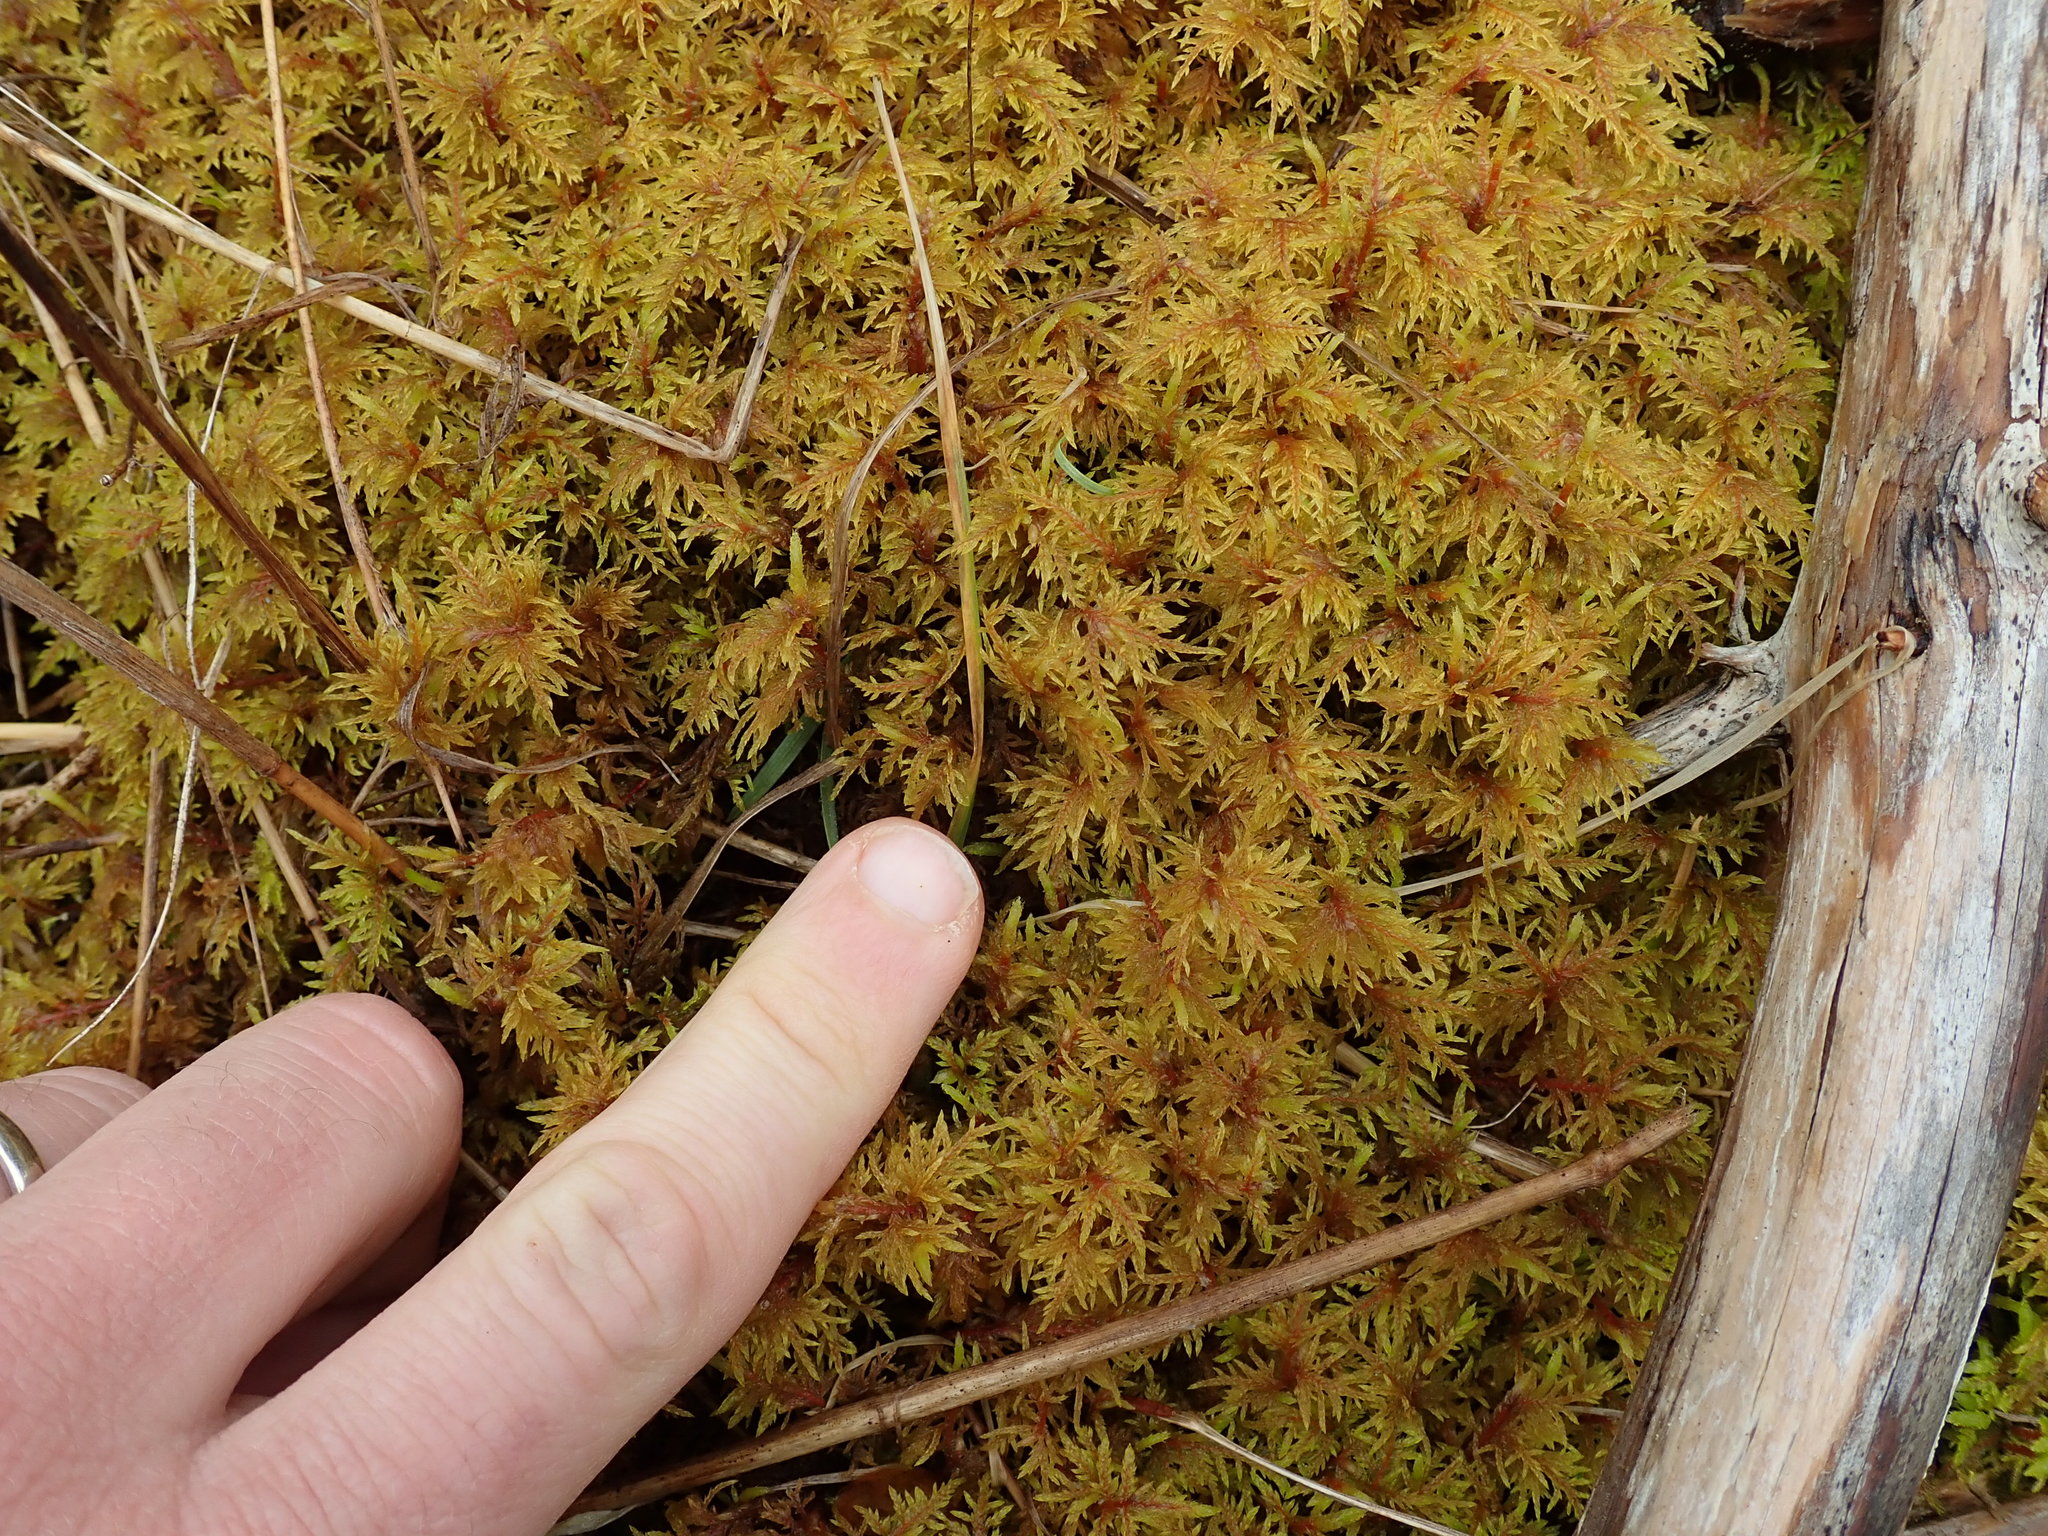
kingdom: Plantae
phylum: Bryophyta
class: Bryopsida
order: Hypnales
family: Hylocomiaceae
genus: Hylocomium
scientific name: Hylocomium splendens
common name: Stairstep moss
